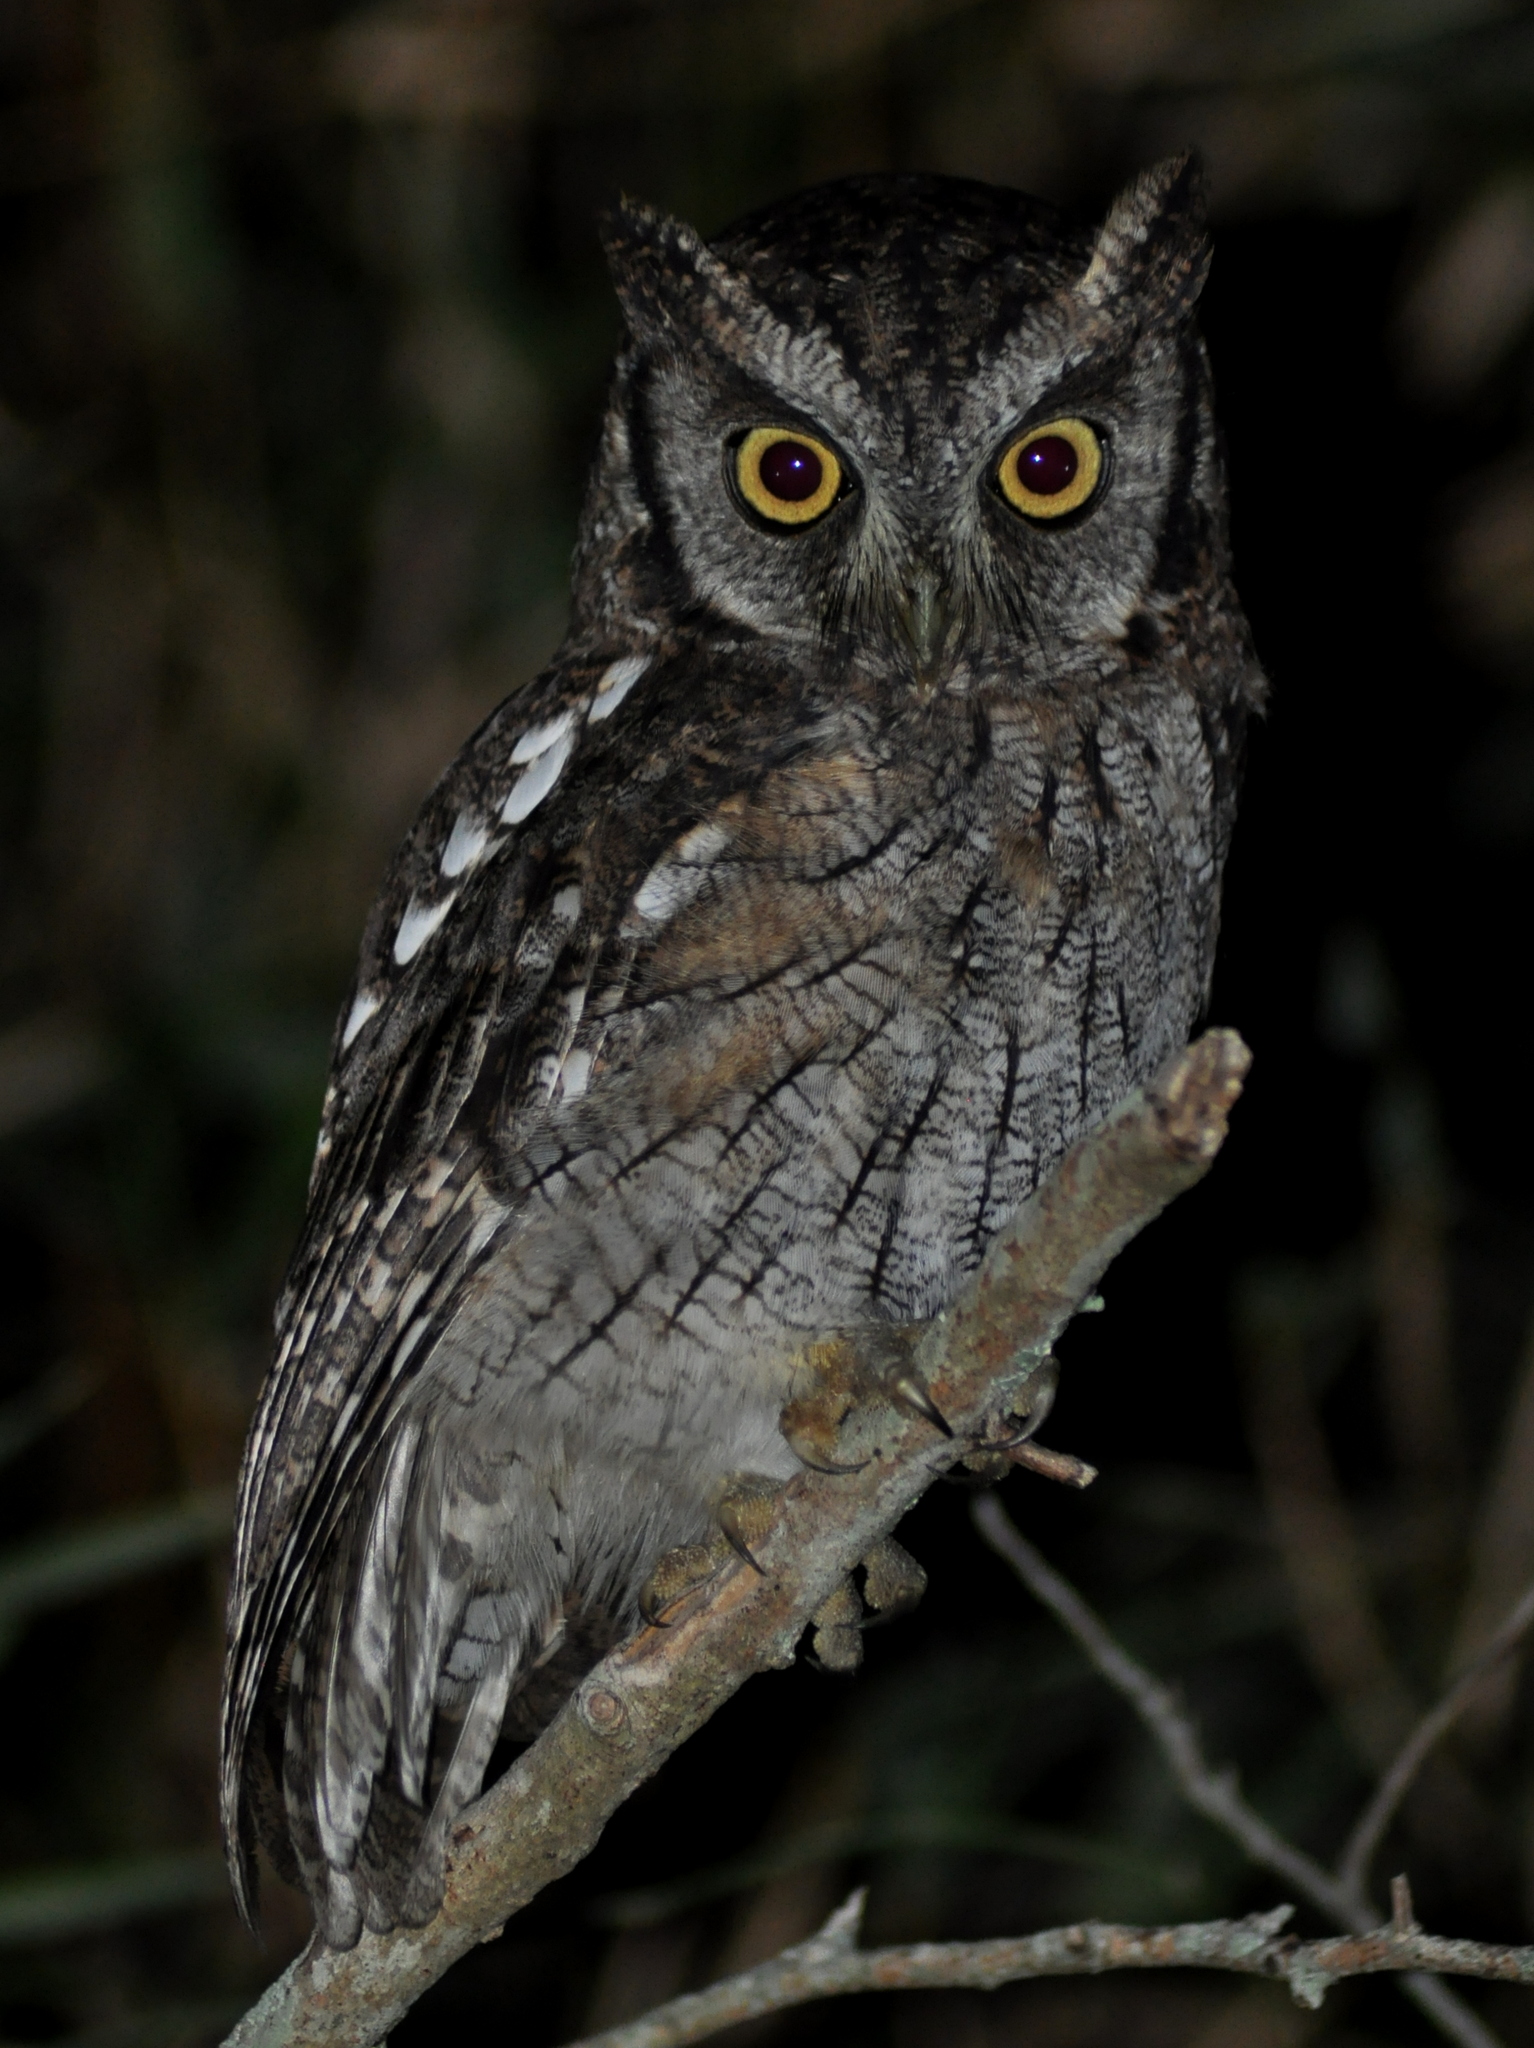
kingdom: Animalia
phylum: Chordata
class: Aves
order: Strigiformes
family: Strigidae
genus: Megascops
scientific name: Megascops choliba
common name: Tropical screech-owl
